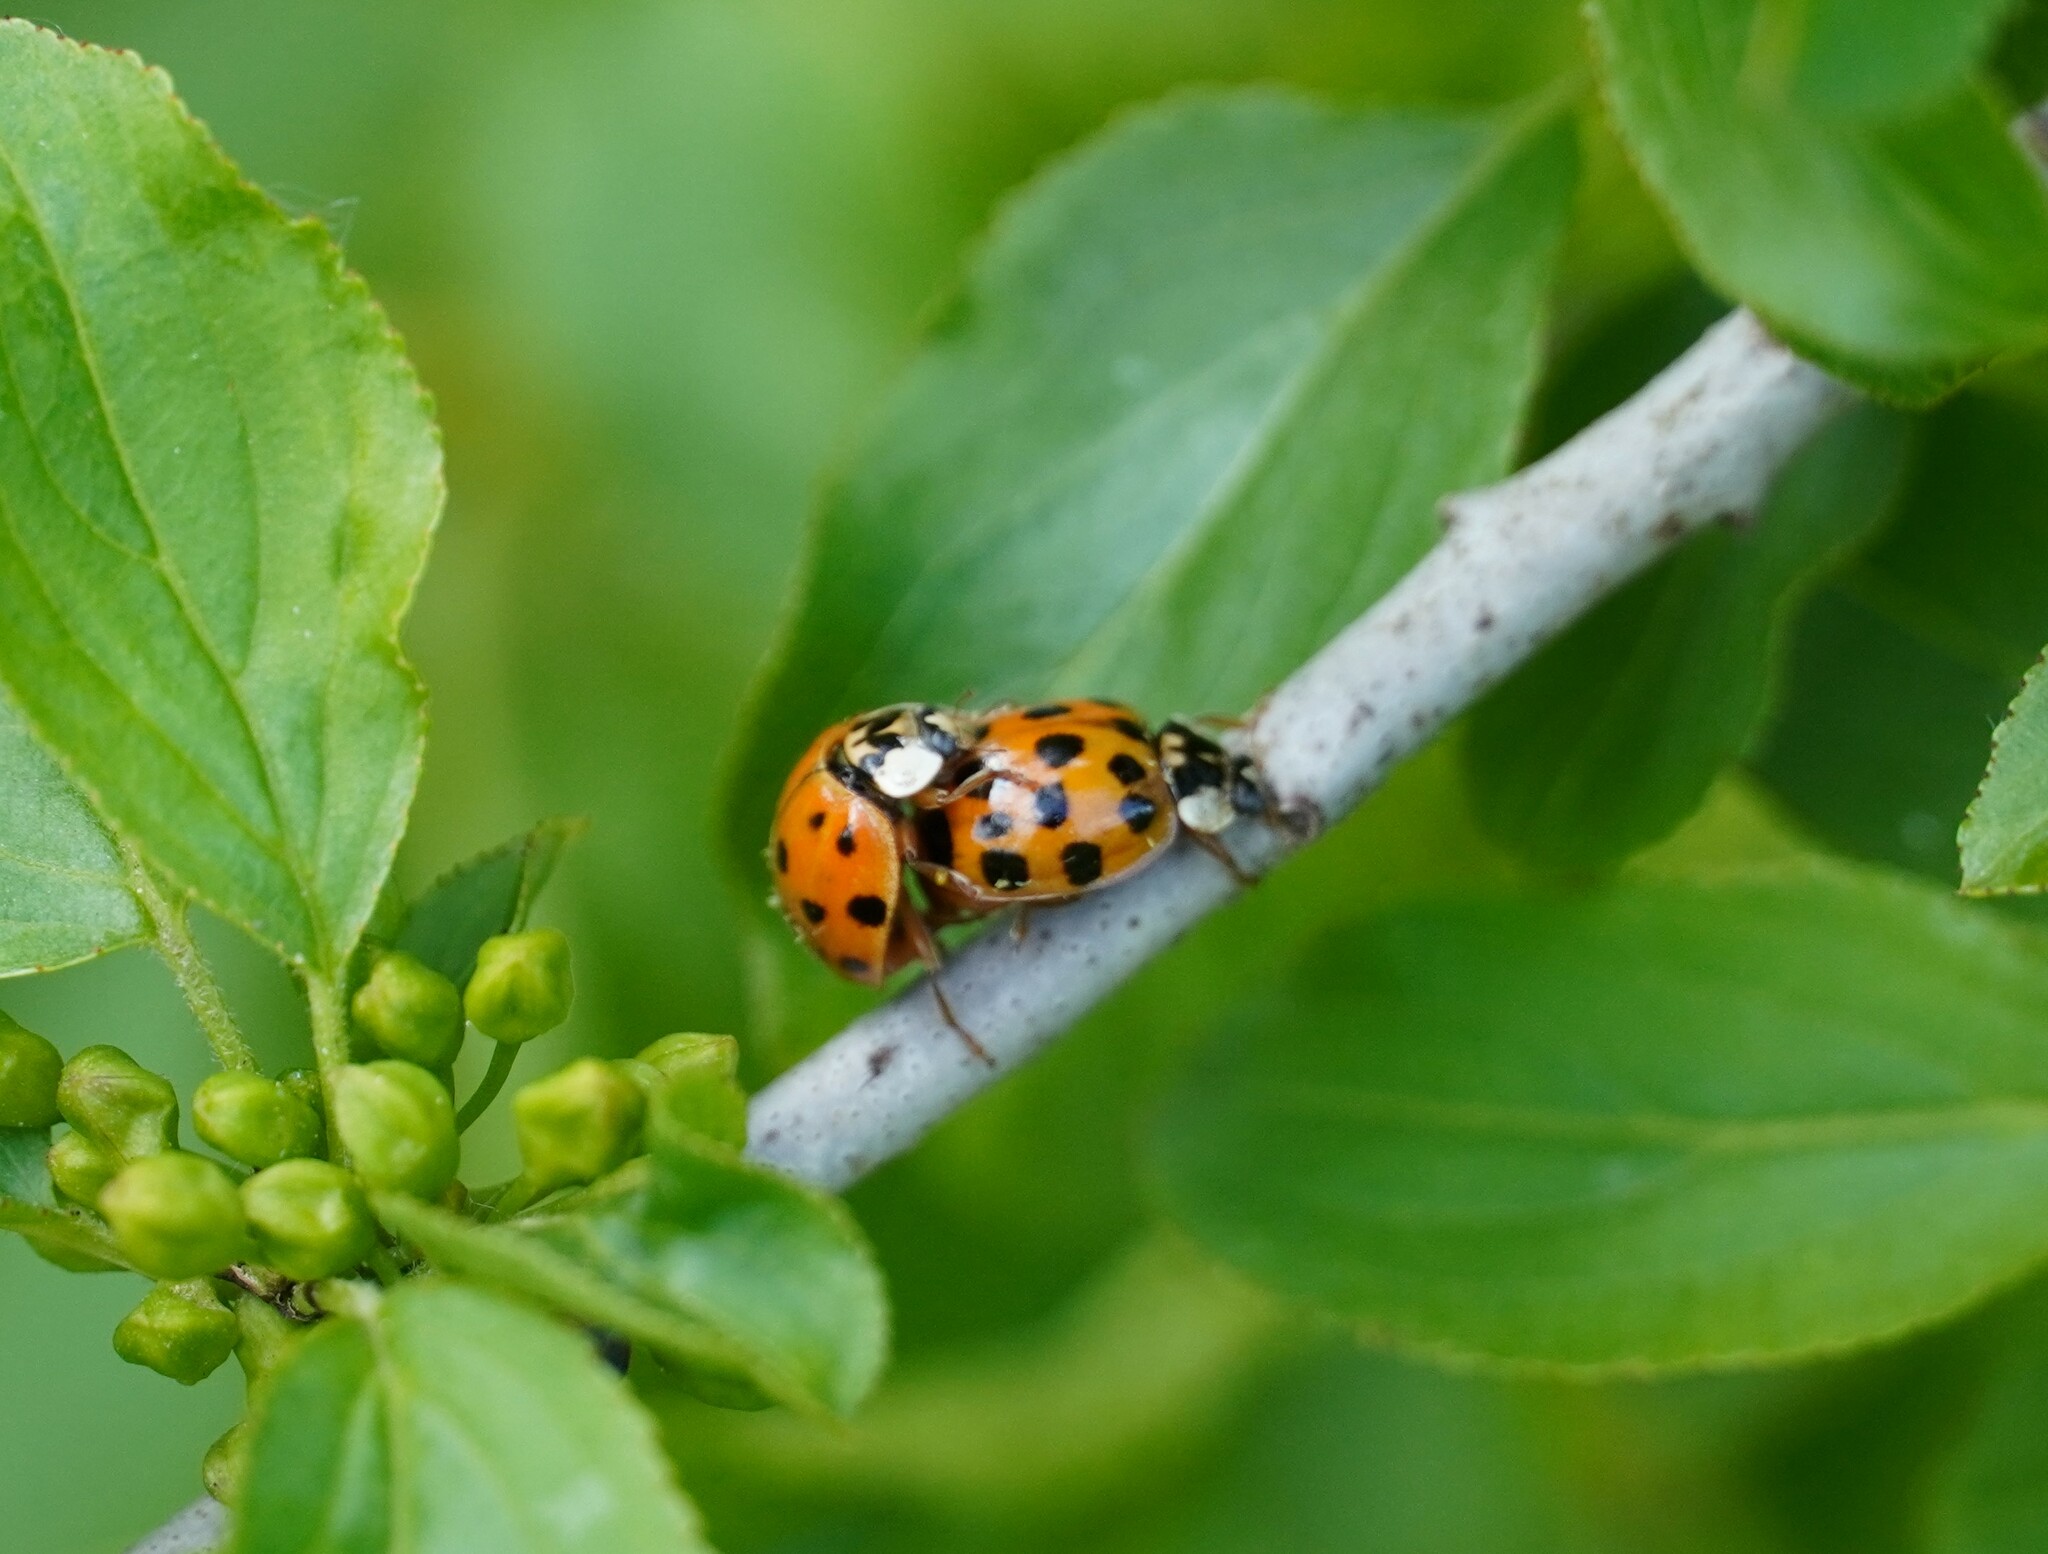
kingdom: Animalia
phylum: Arthropoda
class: Insecta
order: Coleoptera
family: Coccinellidae
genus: Harmonia
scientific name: Harmonia axyridis
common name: Harlequin ladybird
